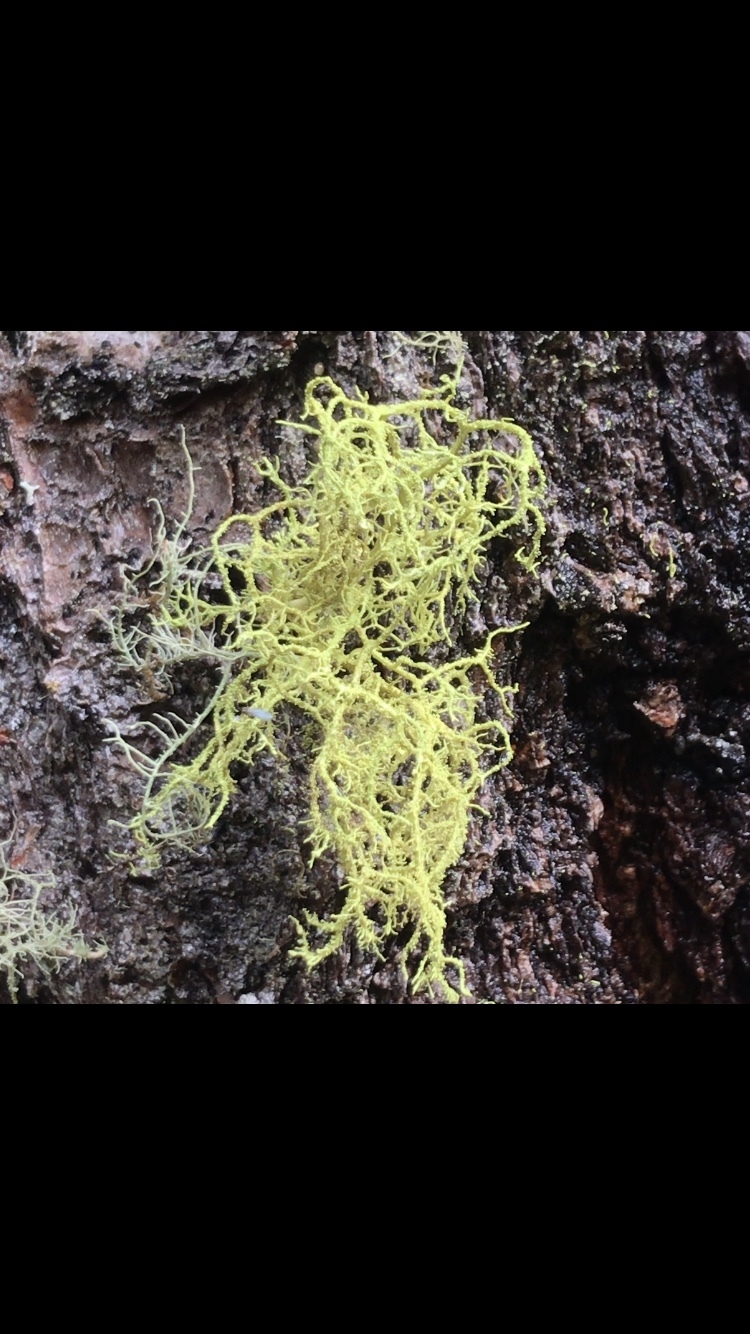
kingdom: Fungi
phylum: Ascomycota
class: Lecanoromycetes
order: Lecanorales
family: Parmeliaceae
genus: Letharia
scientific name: Letharia vulpina
